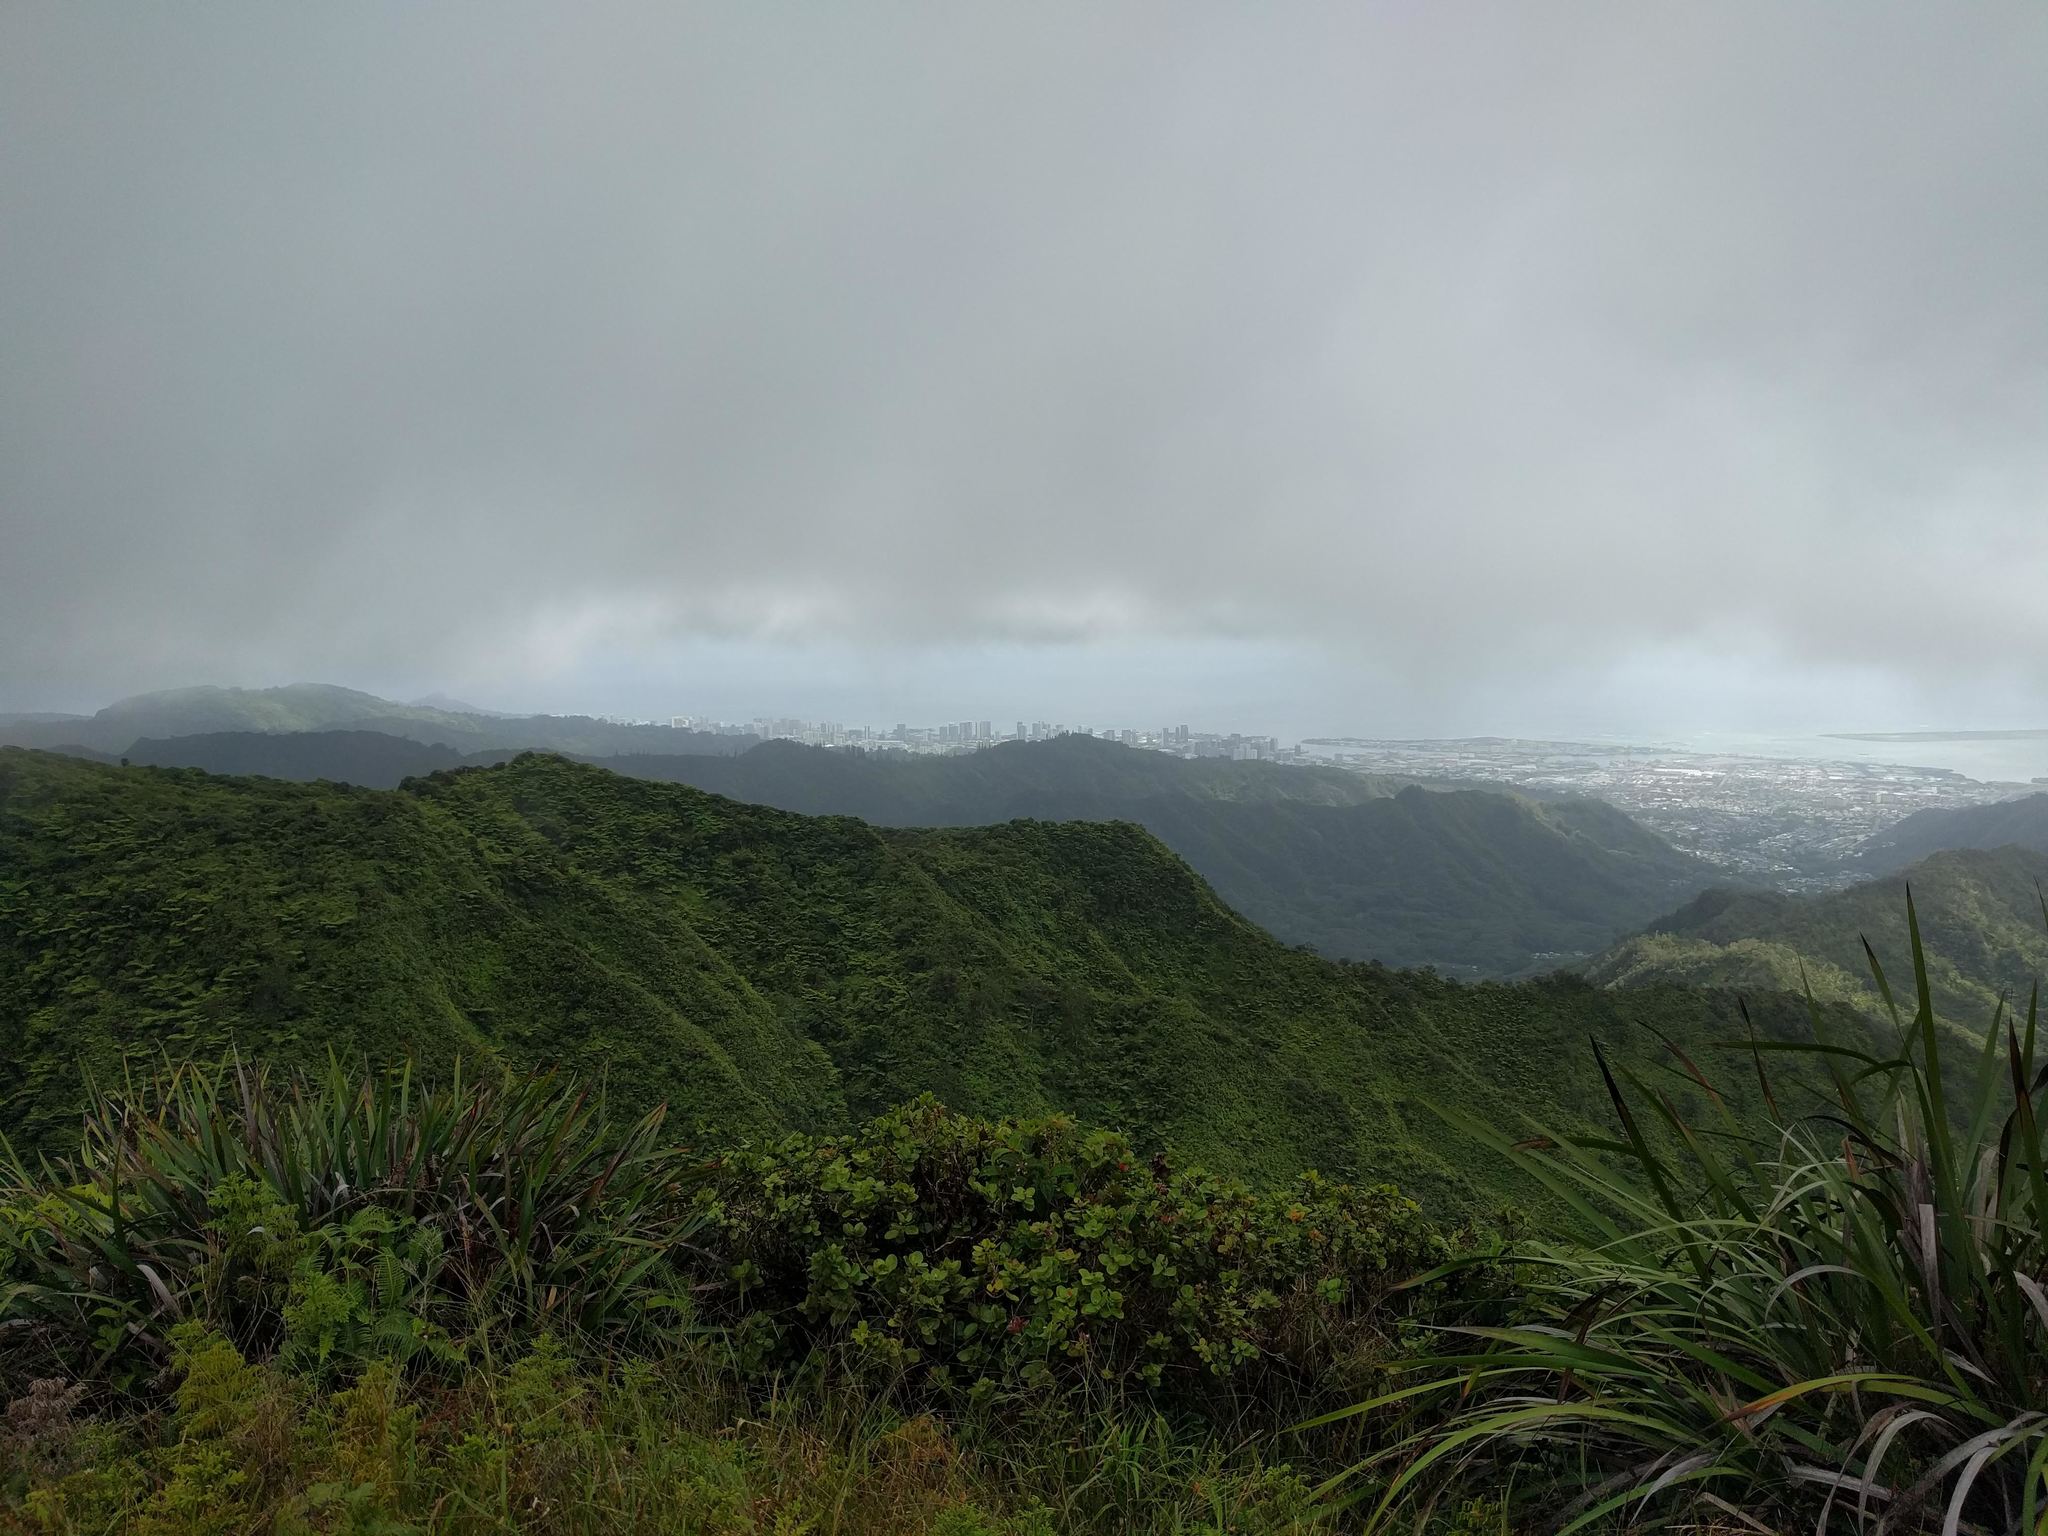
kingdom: Plantae
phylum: Tracheophyta
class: Liliopsida
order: Poales
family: Cyperaceae
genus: Machaerina
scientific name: Machaerina angustifolia
